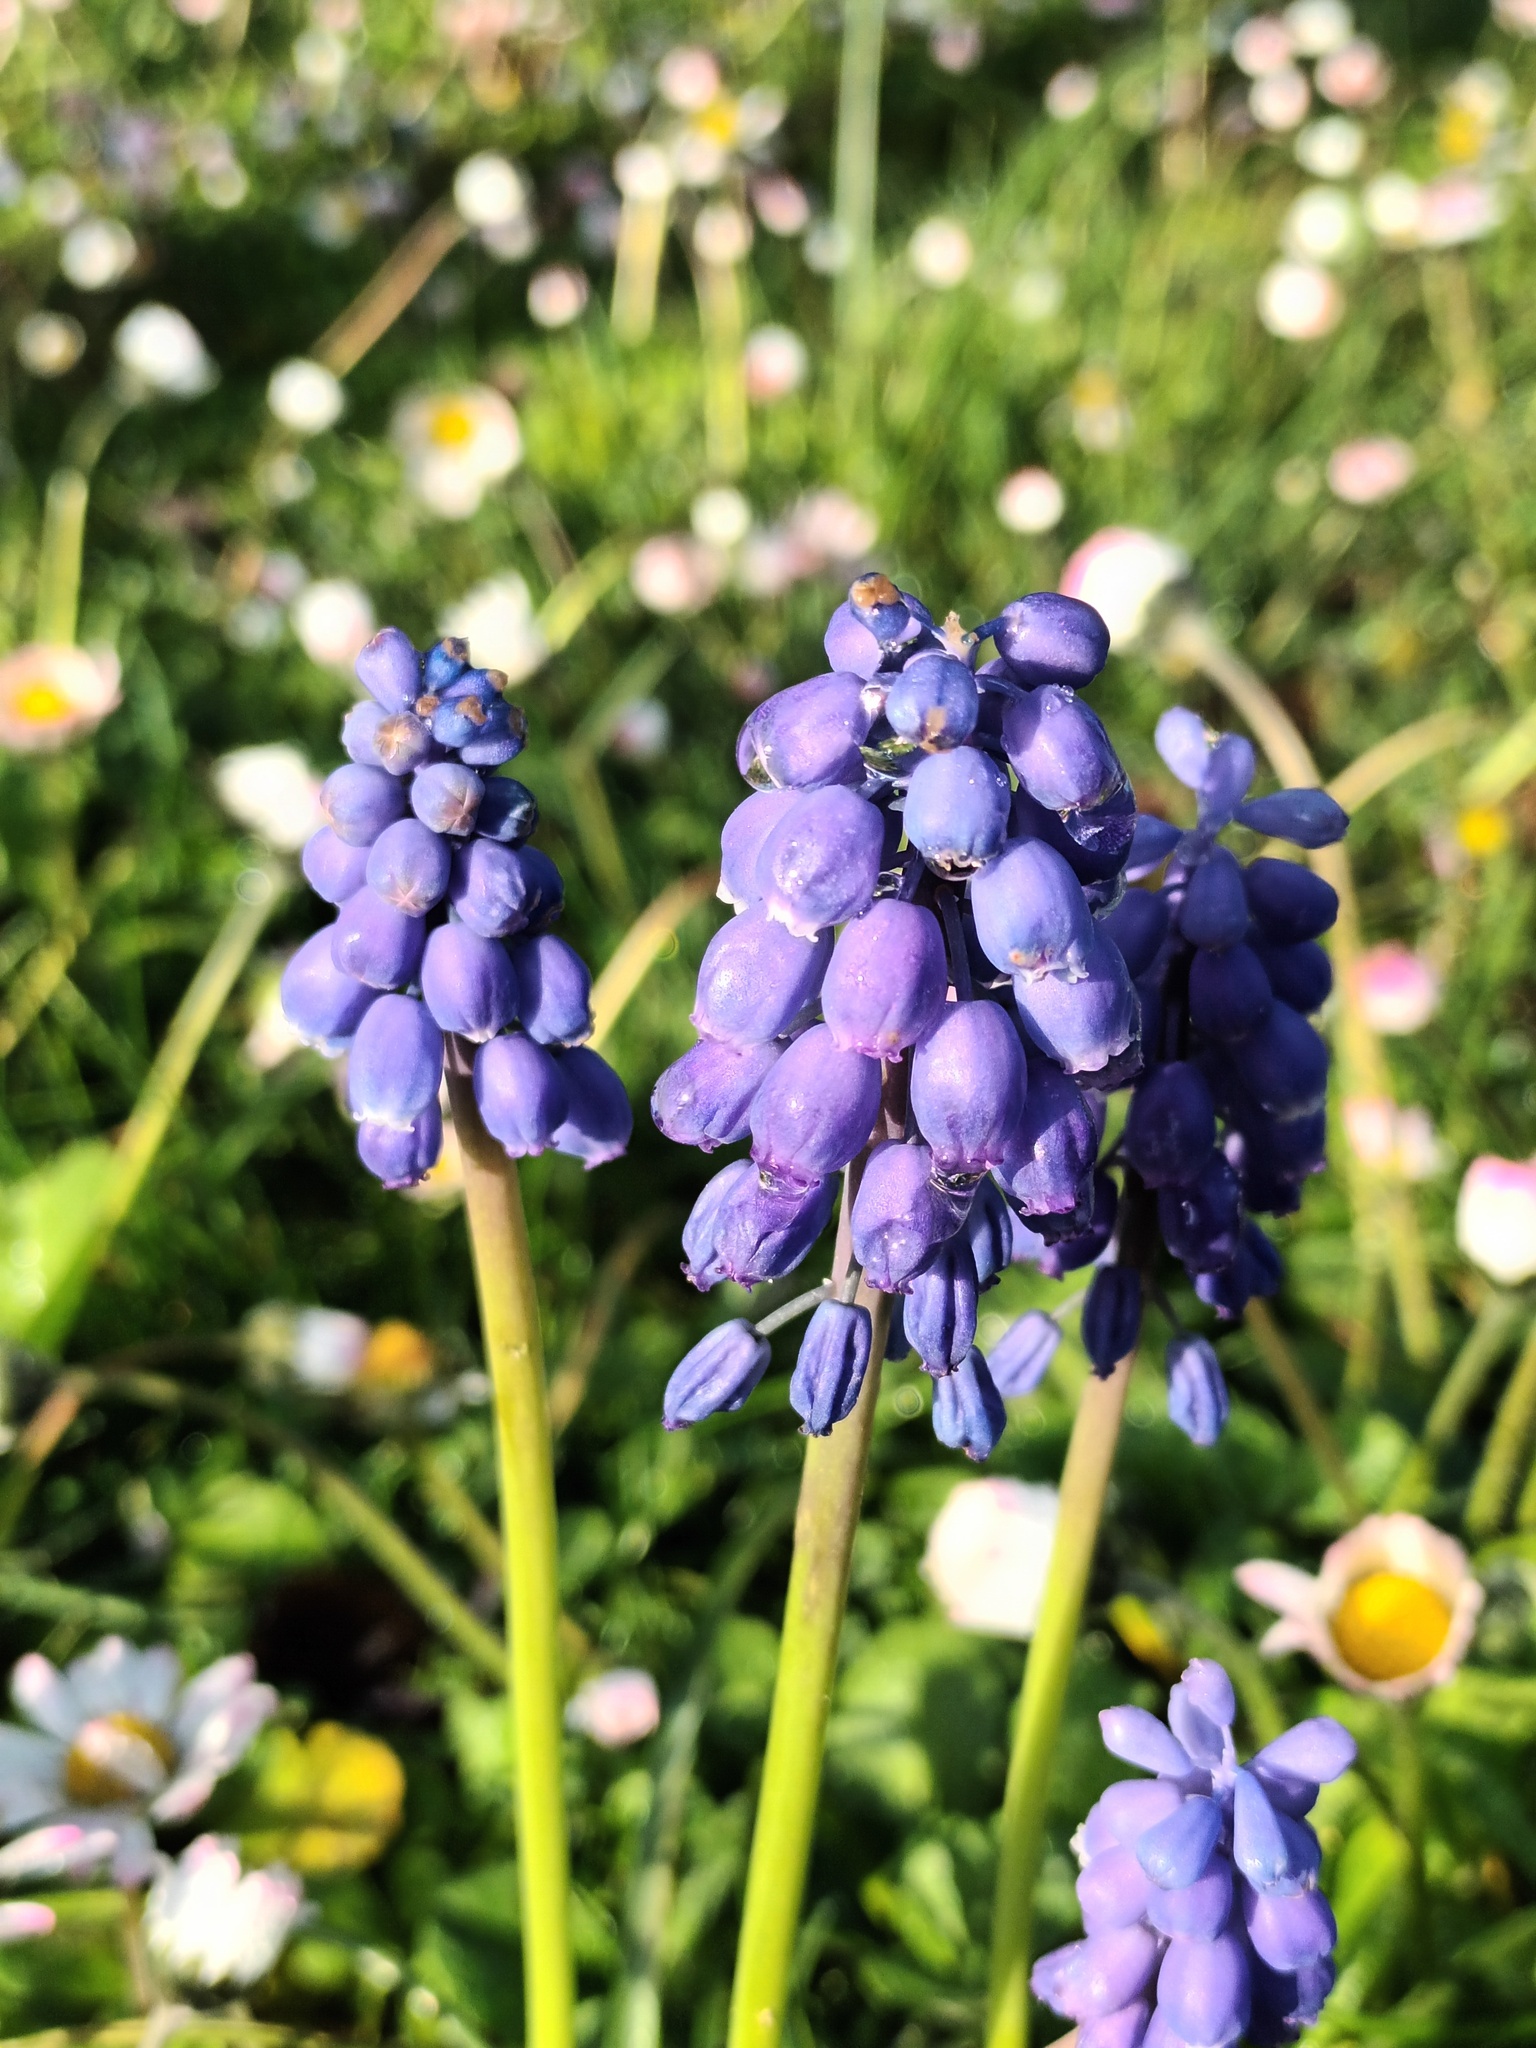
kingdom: Plantae
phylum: Tracheophyta
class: Liliopsida
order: Asparagales
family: Asparagaceae
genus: Muscari
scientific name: Muscari armeniacum
